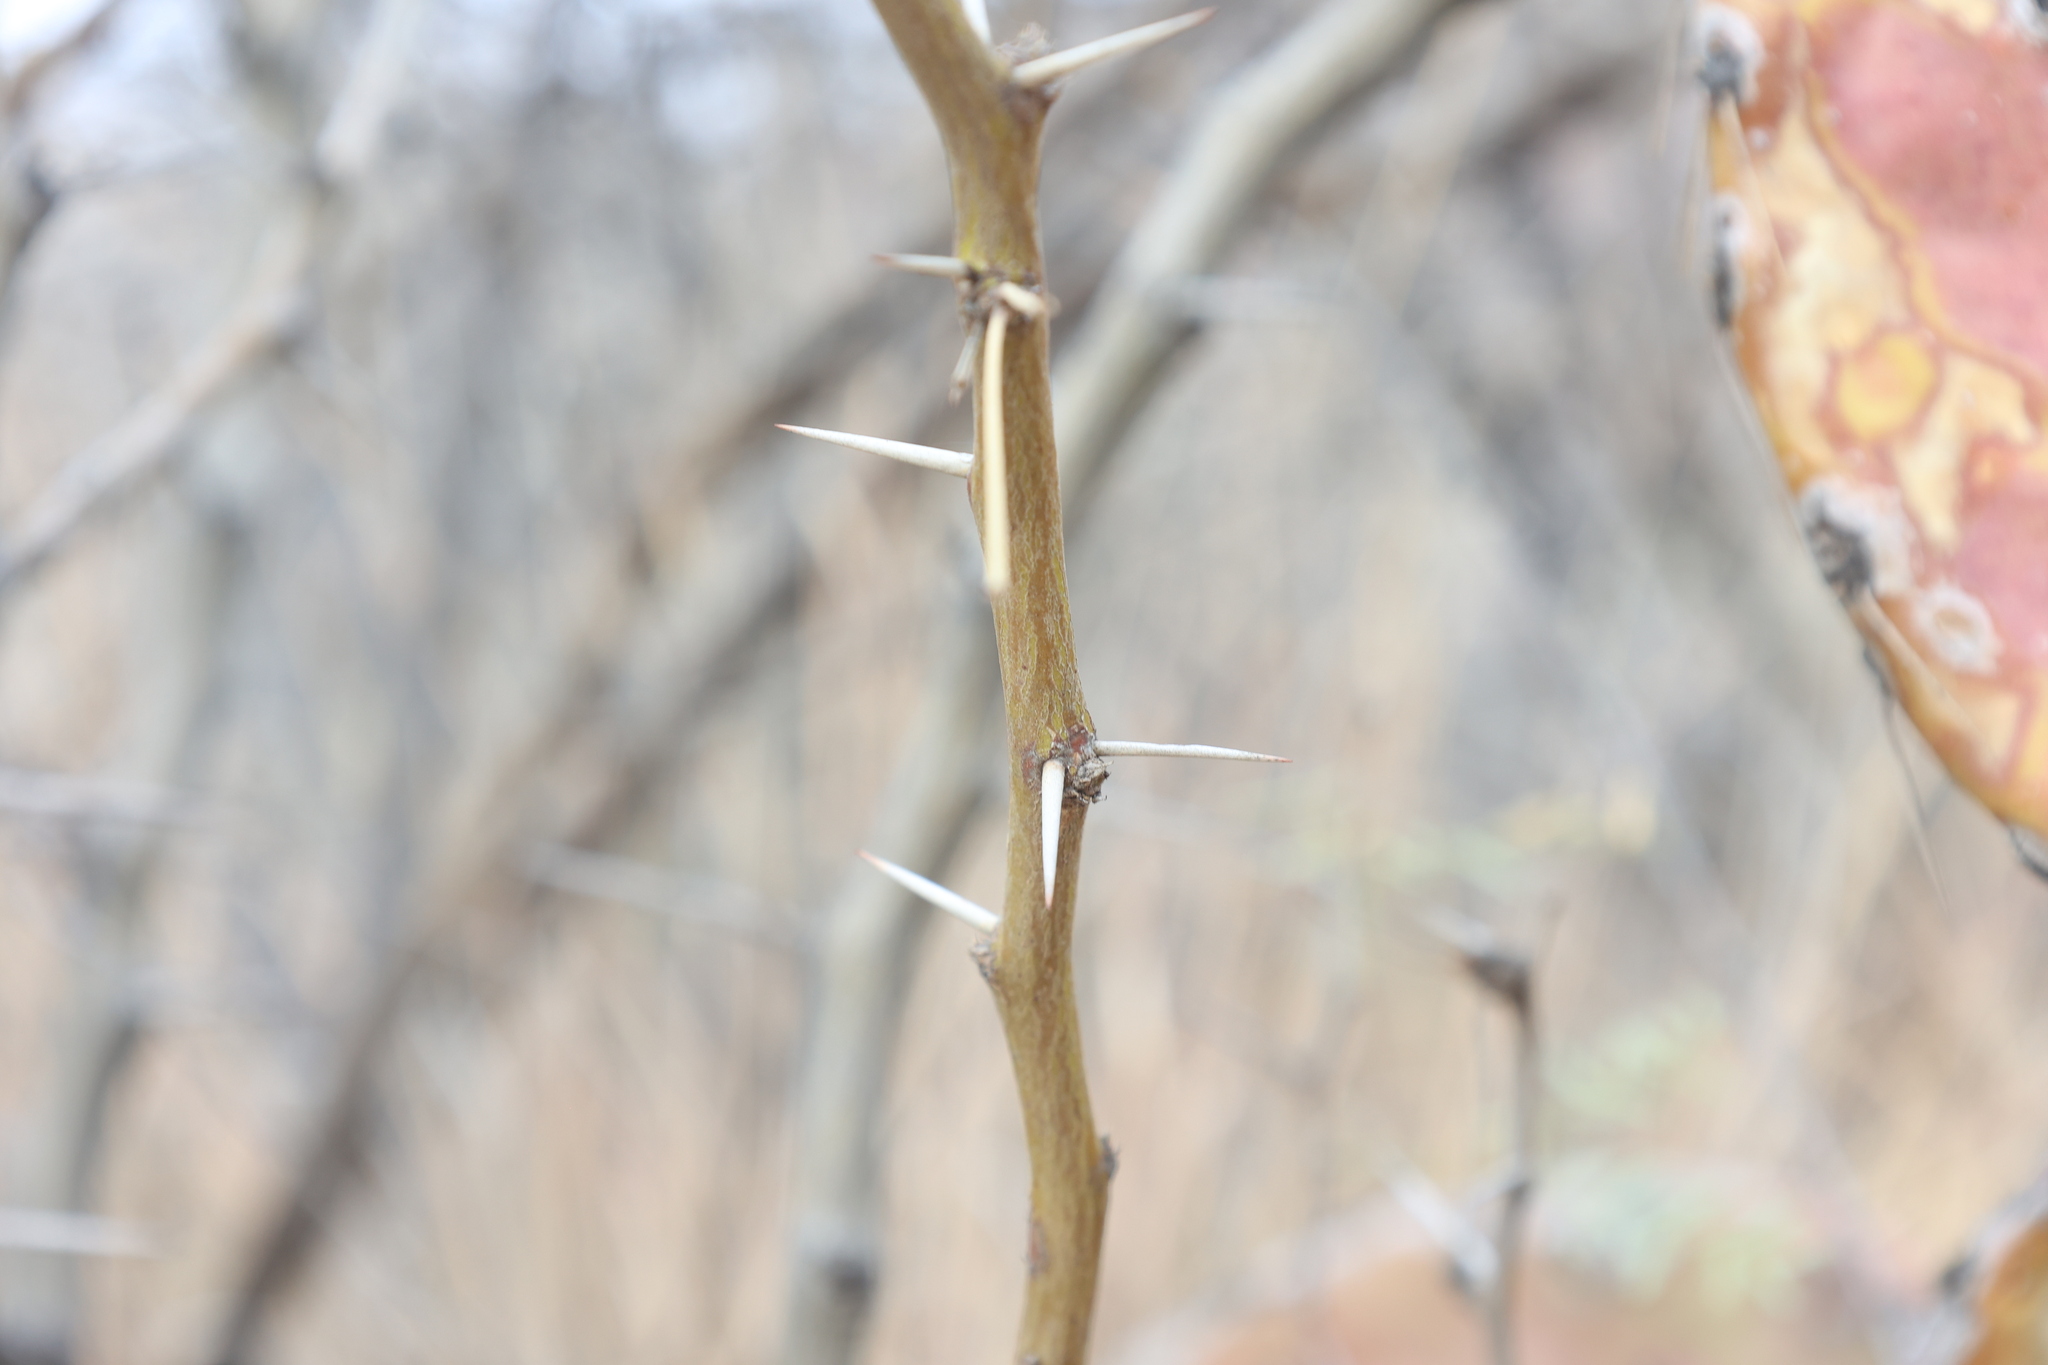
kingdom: Plantae
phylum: Tracheophyta
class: Magnoliopsida
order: Fabales
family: Fabaceae
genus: Prosopis
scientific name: Prosopis glandulosa
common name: Honey mesquite
